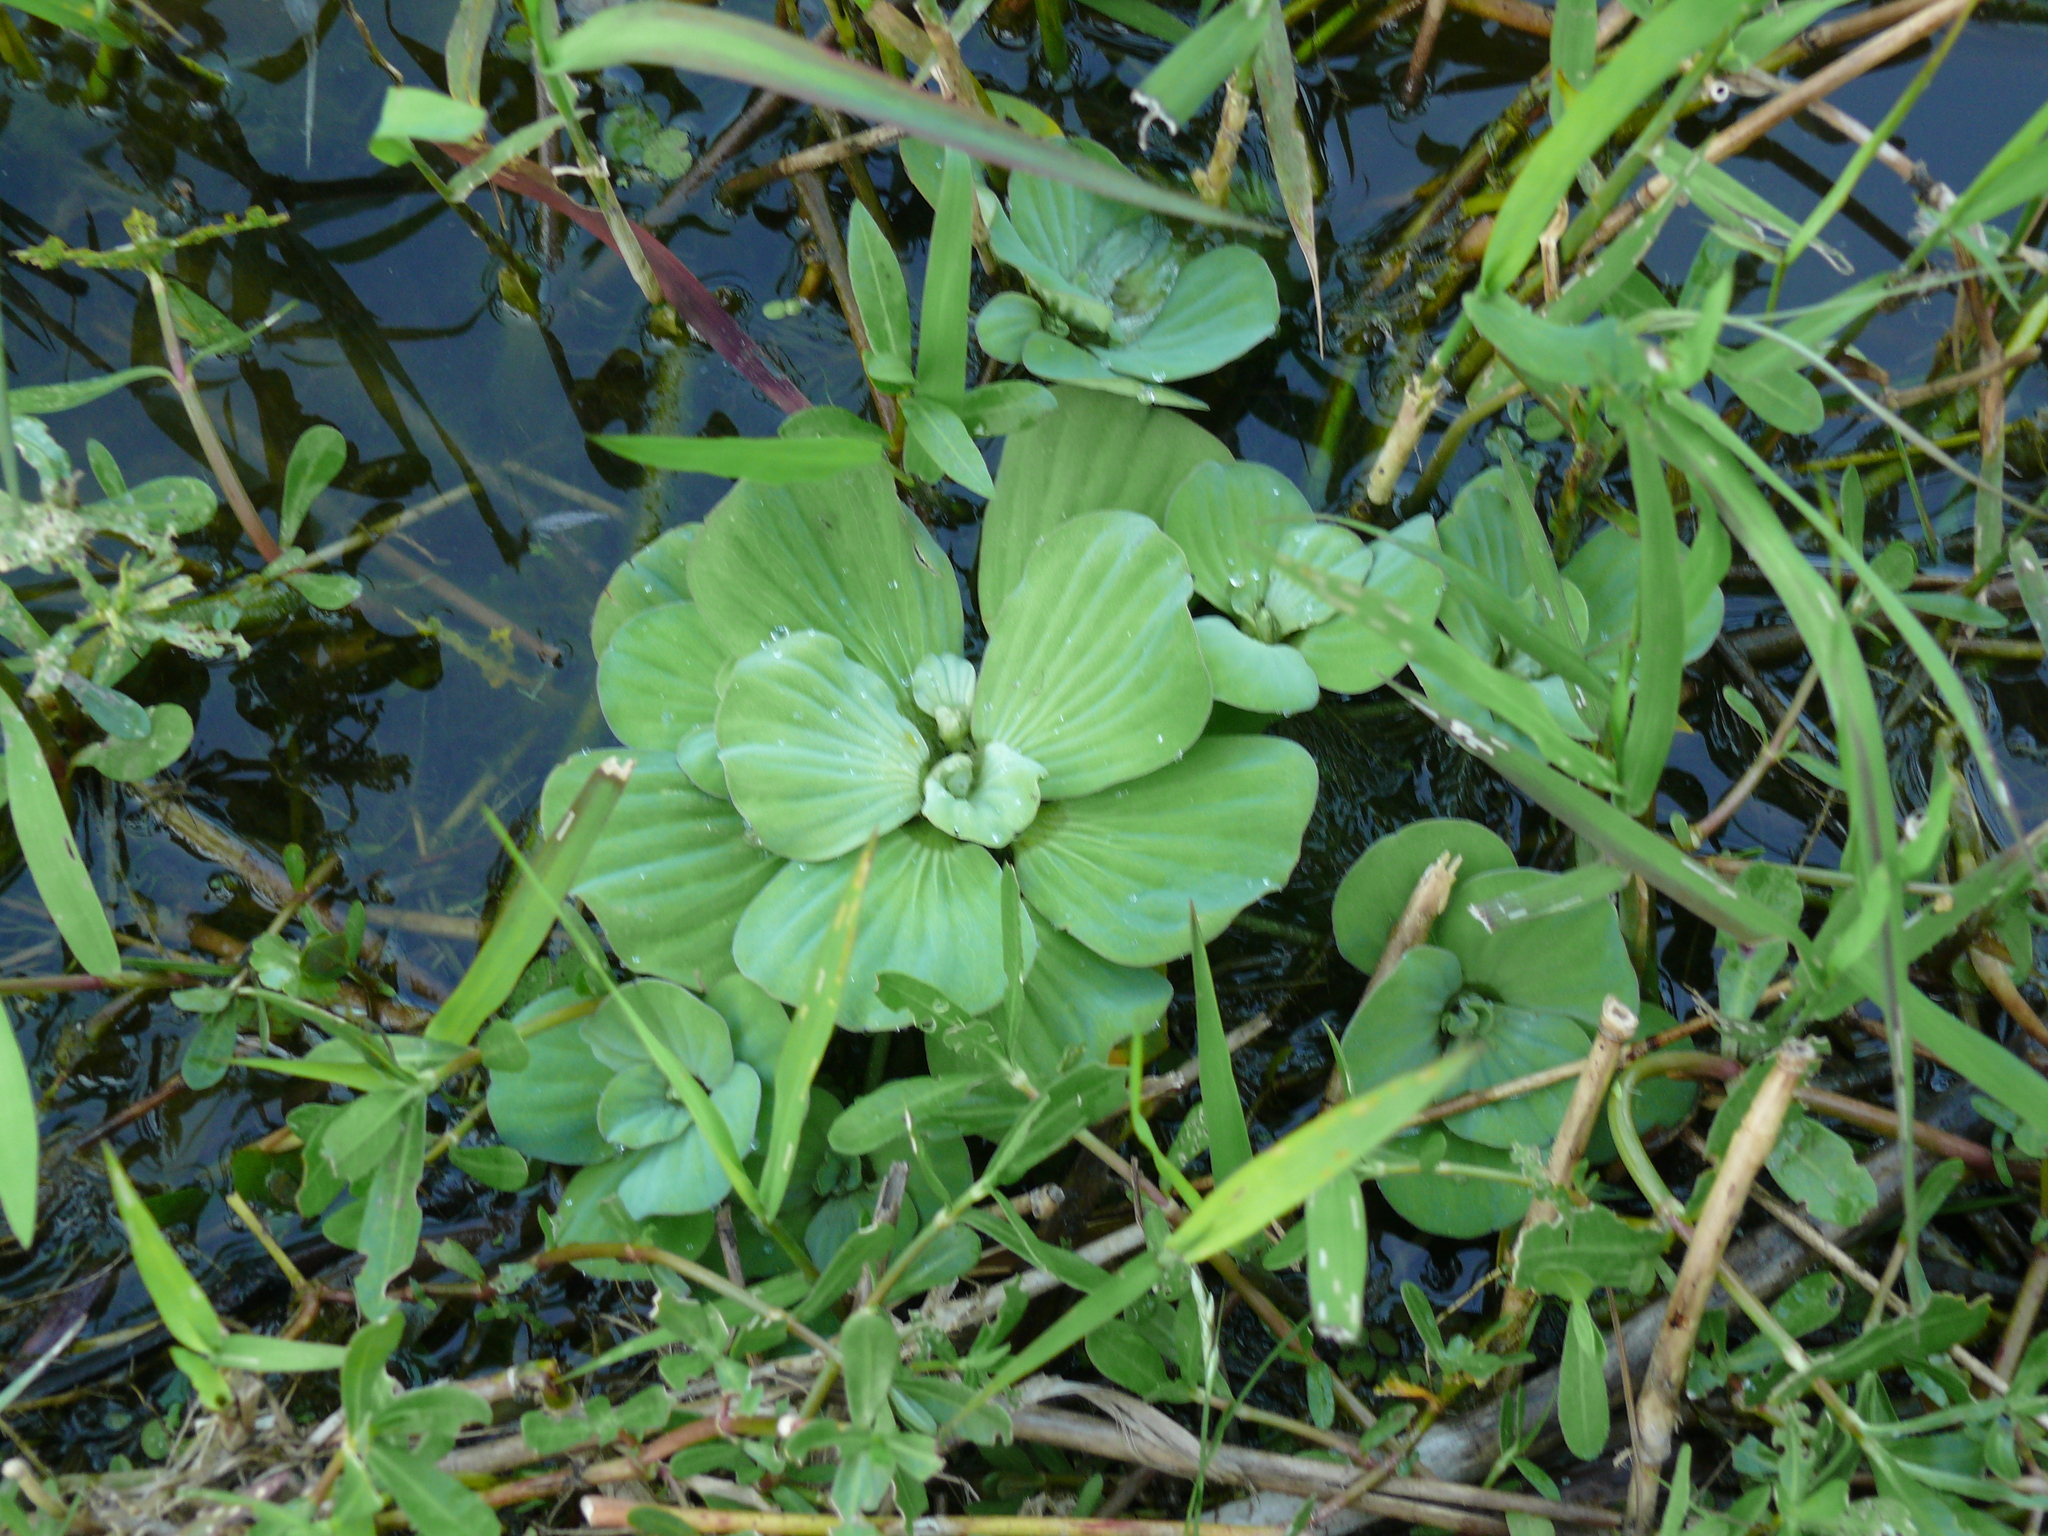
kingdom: Plantae
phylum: Tracheophyta
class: Liliopsida
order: Alismatales
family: Araceae
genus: Pistia
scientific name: Pistia stratiotes
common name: Water lettuce
